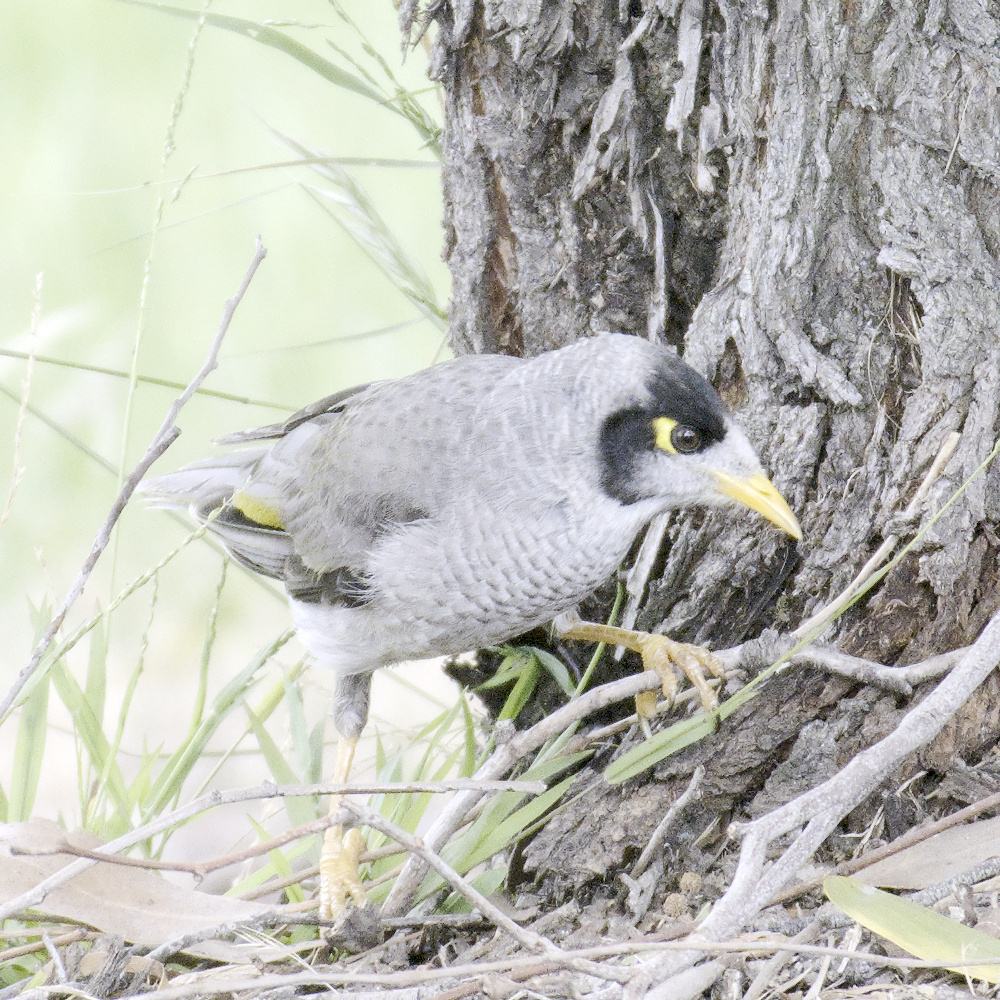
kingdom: Animalia
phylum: Chordata
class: Aves
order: Passeriformes
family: Meliphagidae
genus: Manorina
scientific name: Manorina melanocephala
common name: Noisy miner
